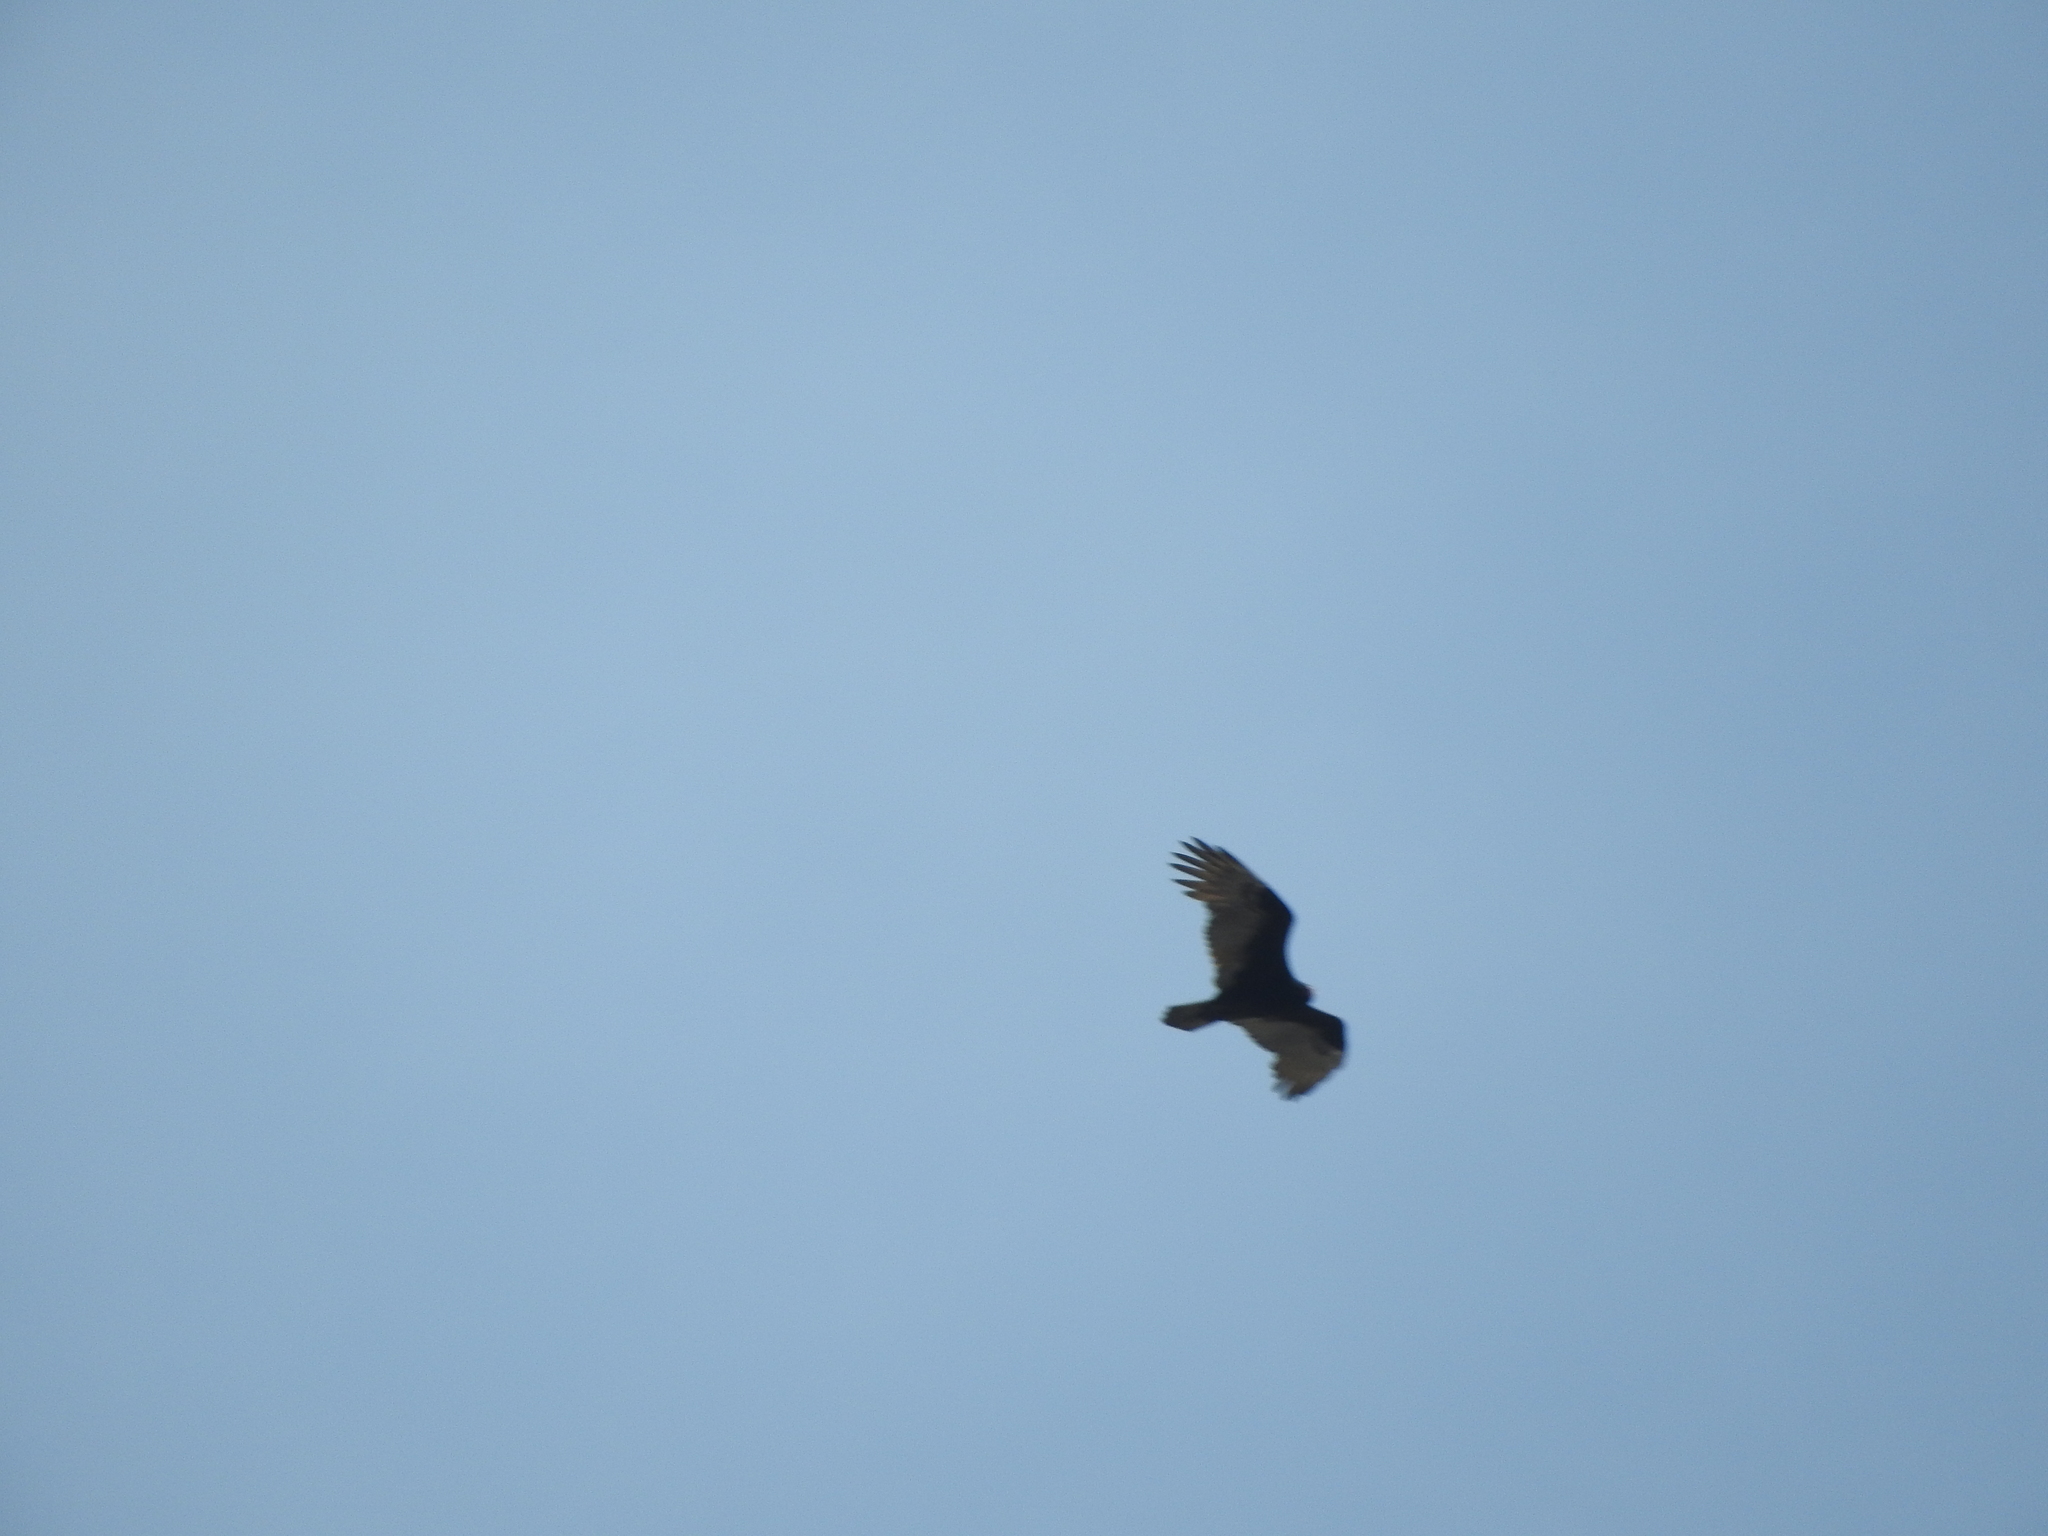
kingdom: Animalia
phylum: Chordata
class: Aves
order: Accipitriformes
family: Cathartidae
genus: Cathartes
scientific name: Cathartes aura
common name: Turkey vulture
